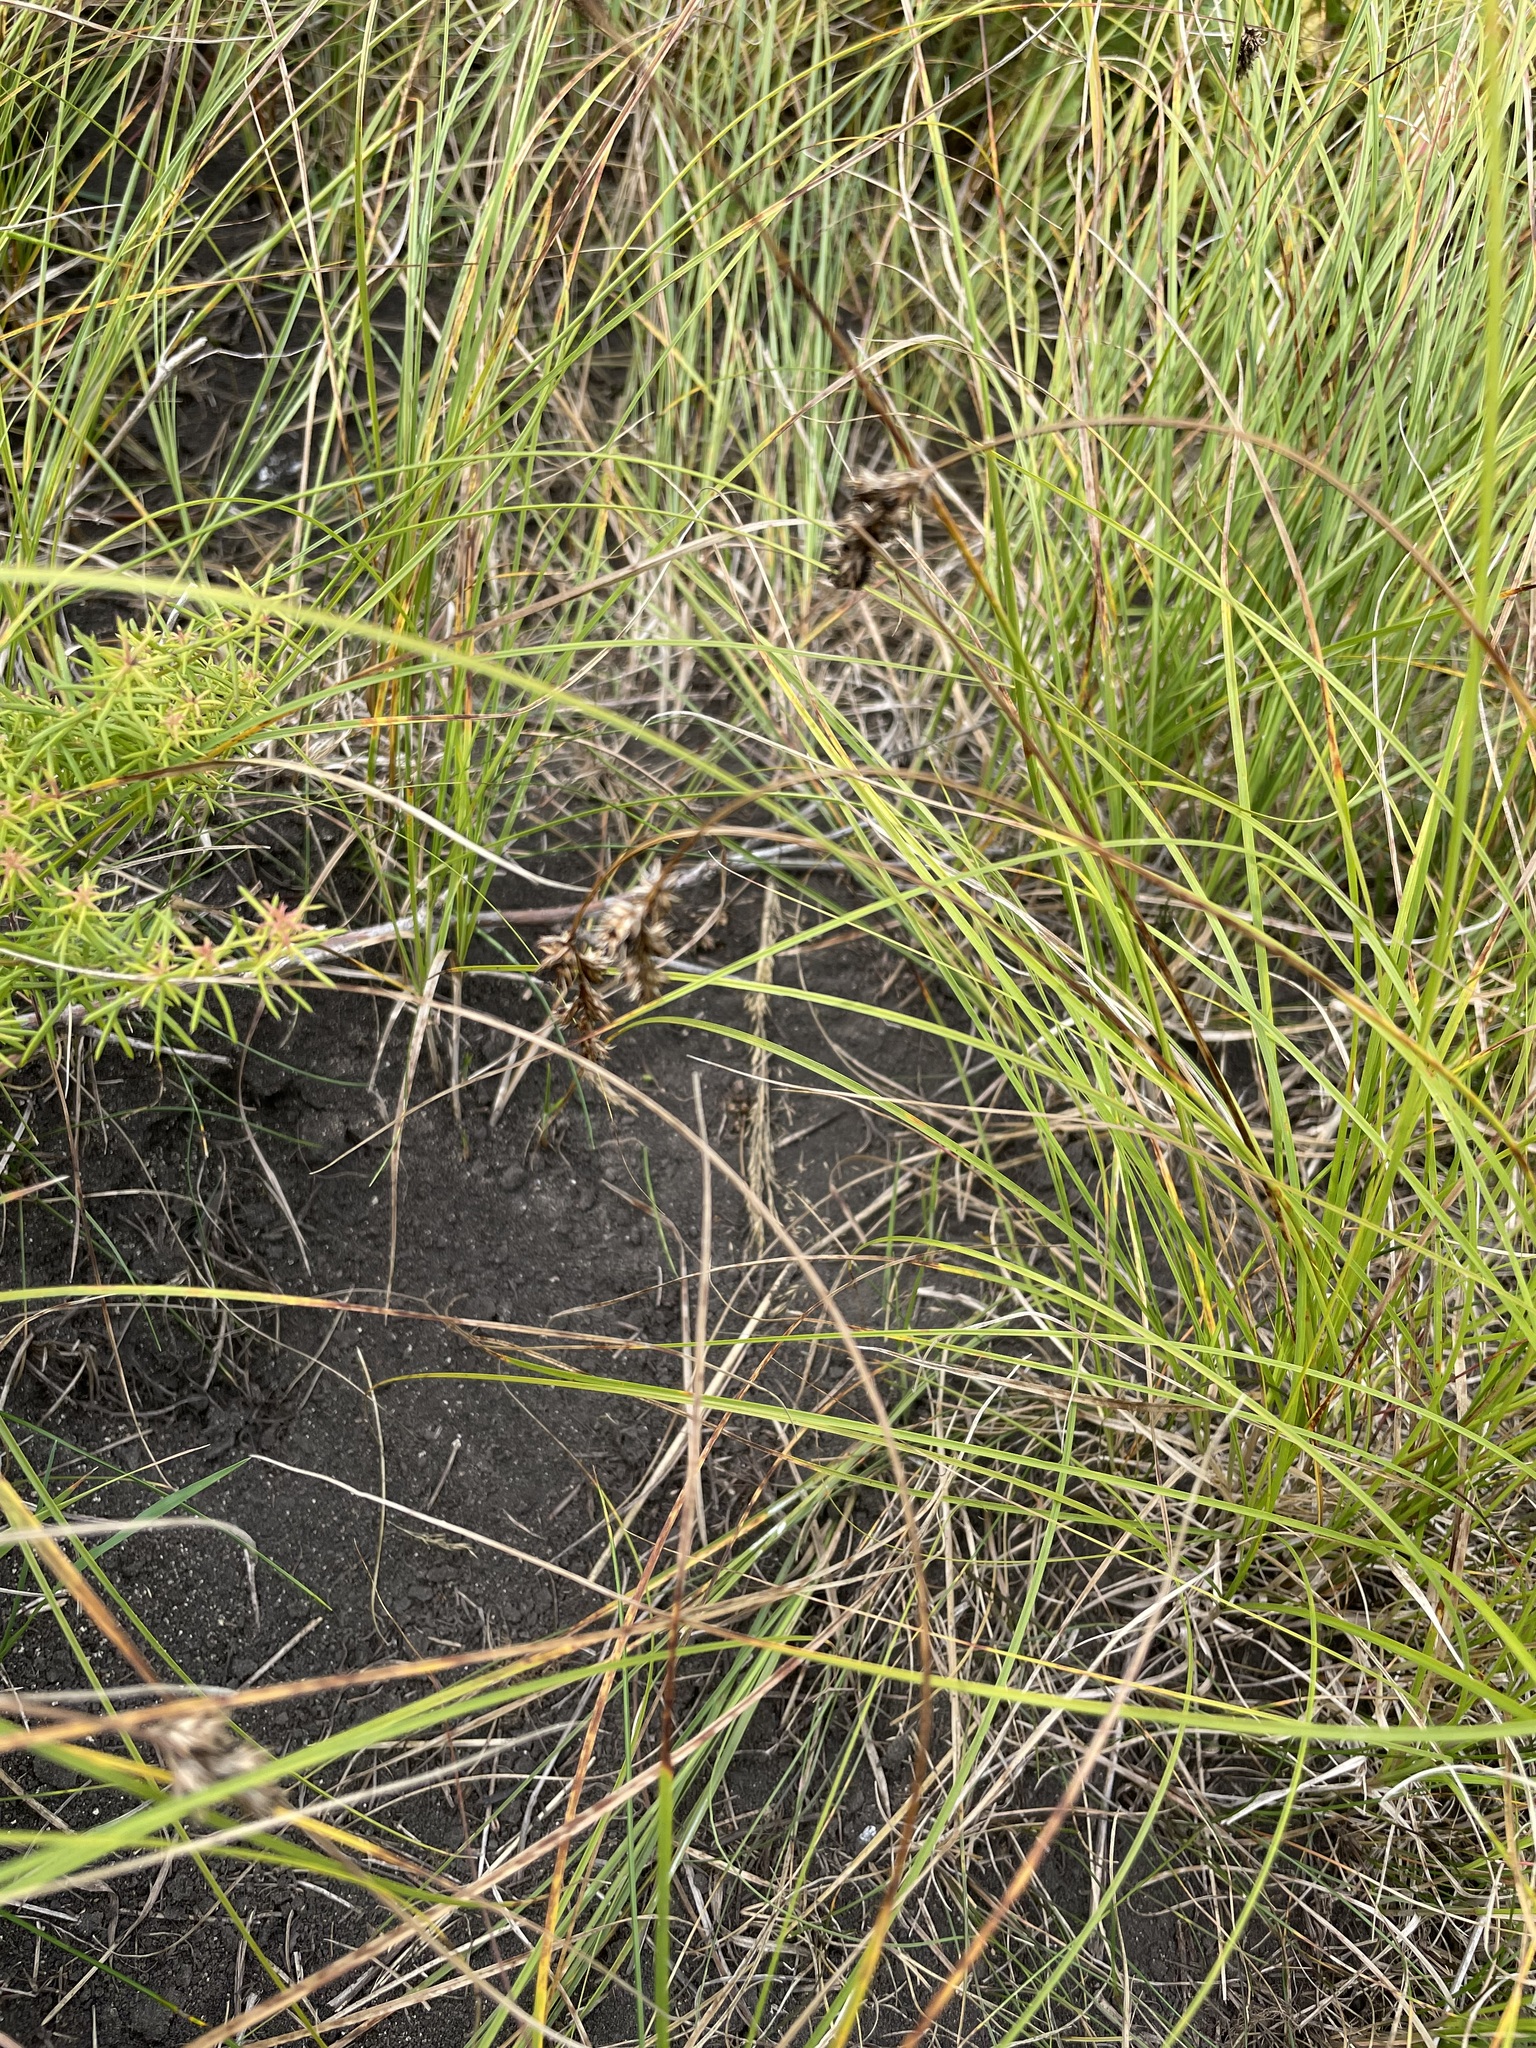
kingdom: Plantae
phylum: Tracheophyta
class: Liliopsida
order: Poales
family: Cyperaceae
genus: Carex
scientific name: Carex praecox
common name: Early sedge
